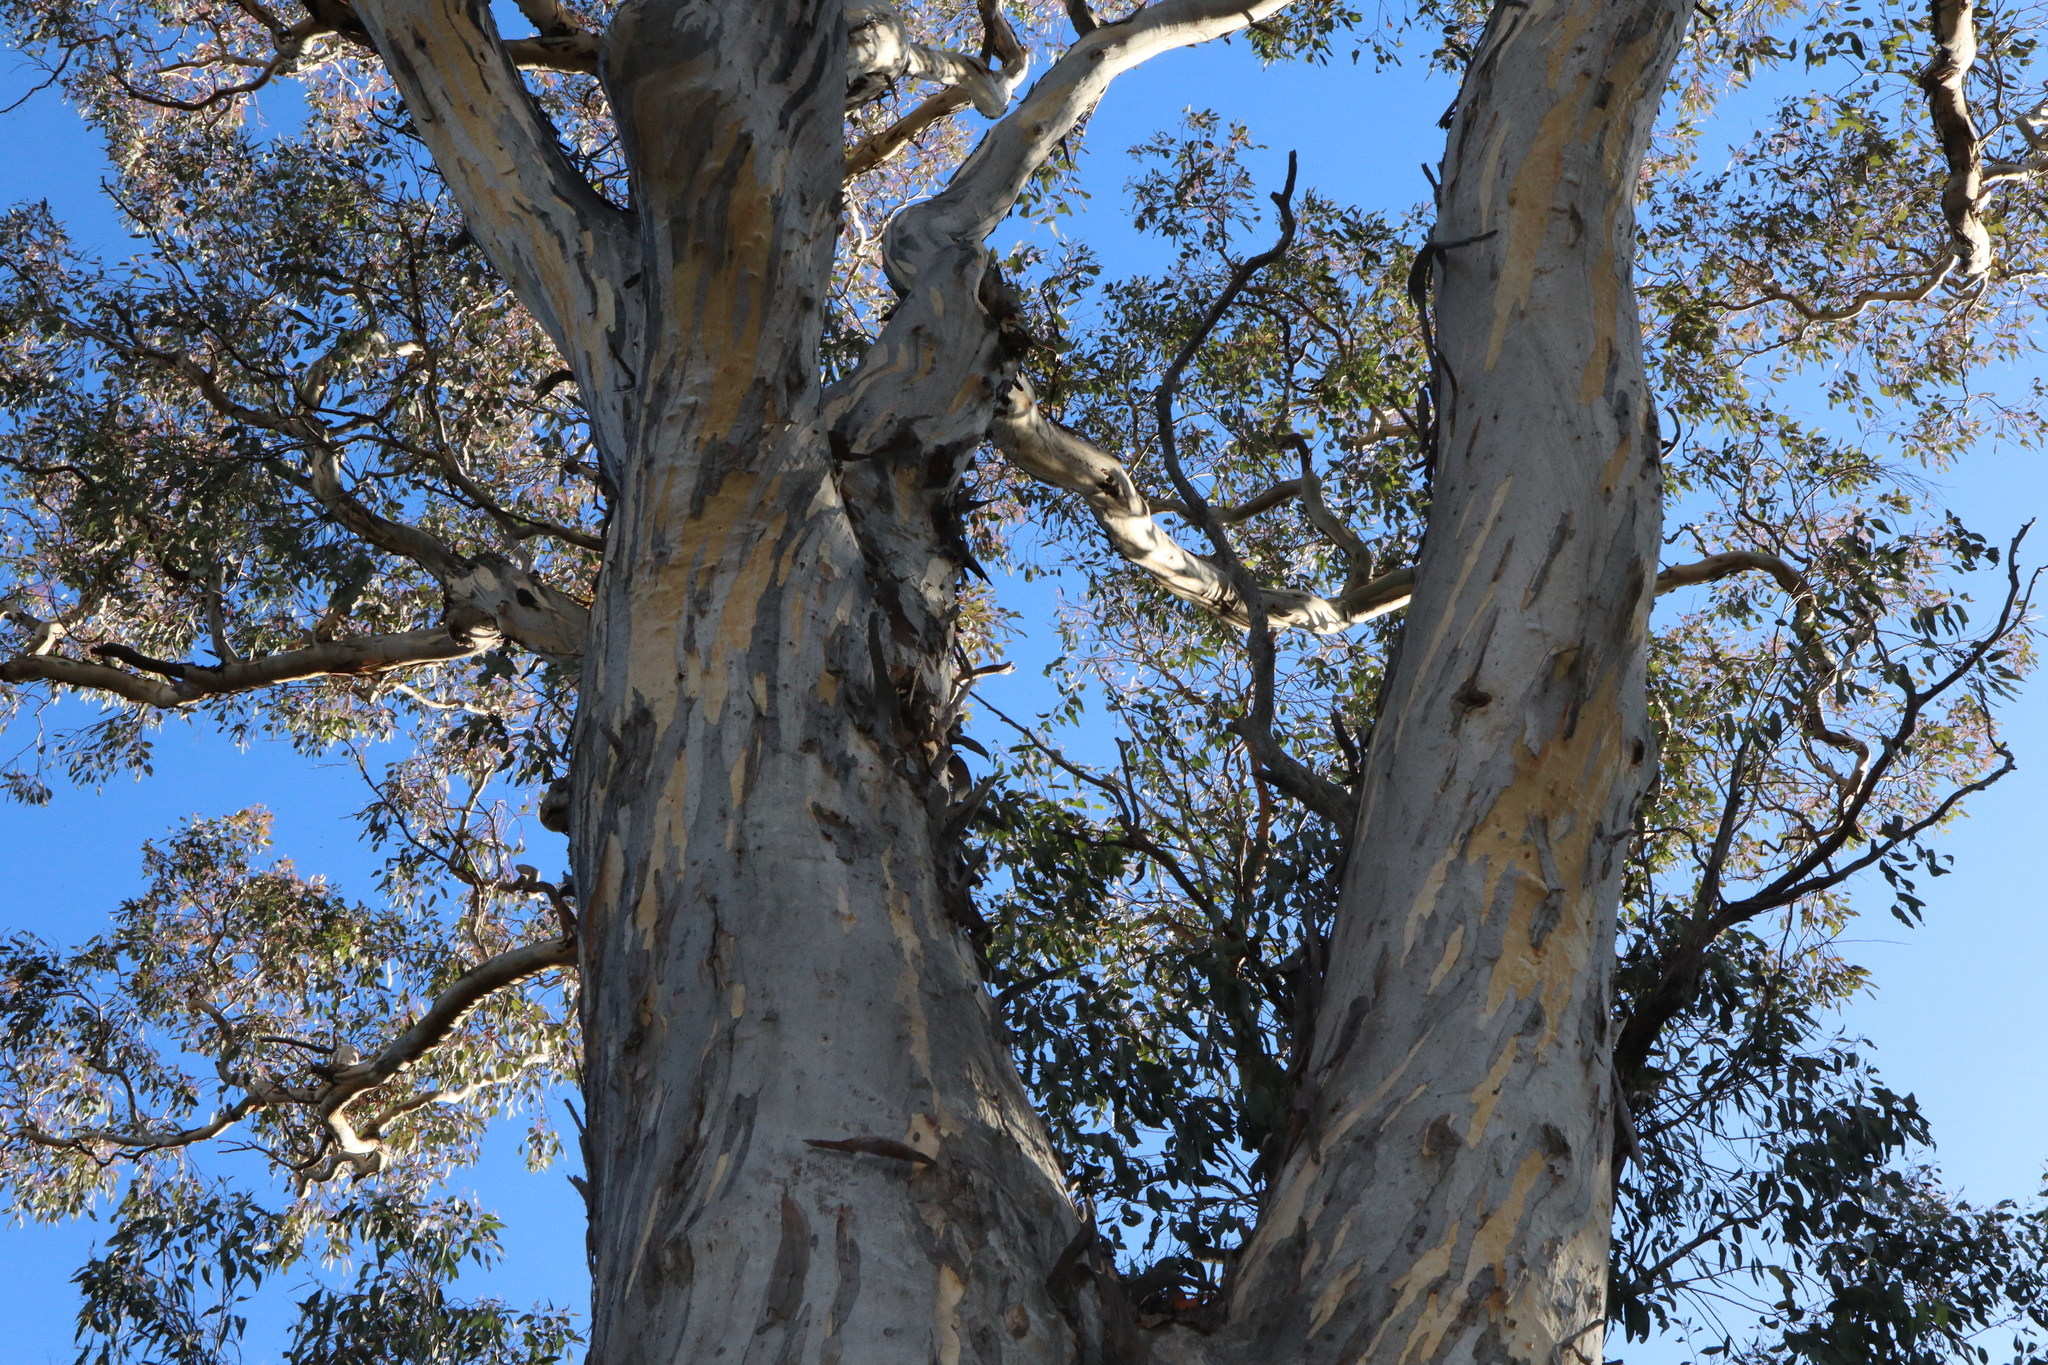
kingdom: Plantae
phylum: Tracheophyta
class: Magnoliopsida
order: Myrtales
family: Myrtaceae
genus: Eucalyptus
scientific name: Eucalyptus melliodora
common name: Yellow ironbox
